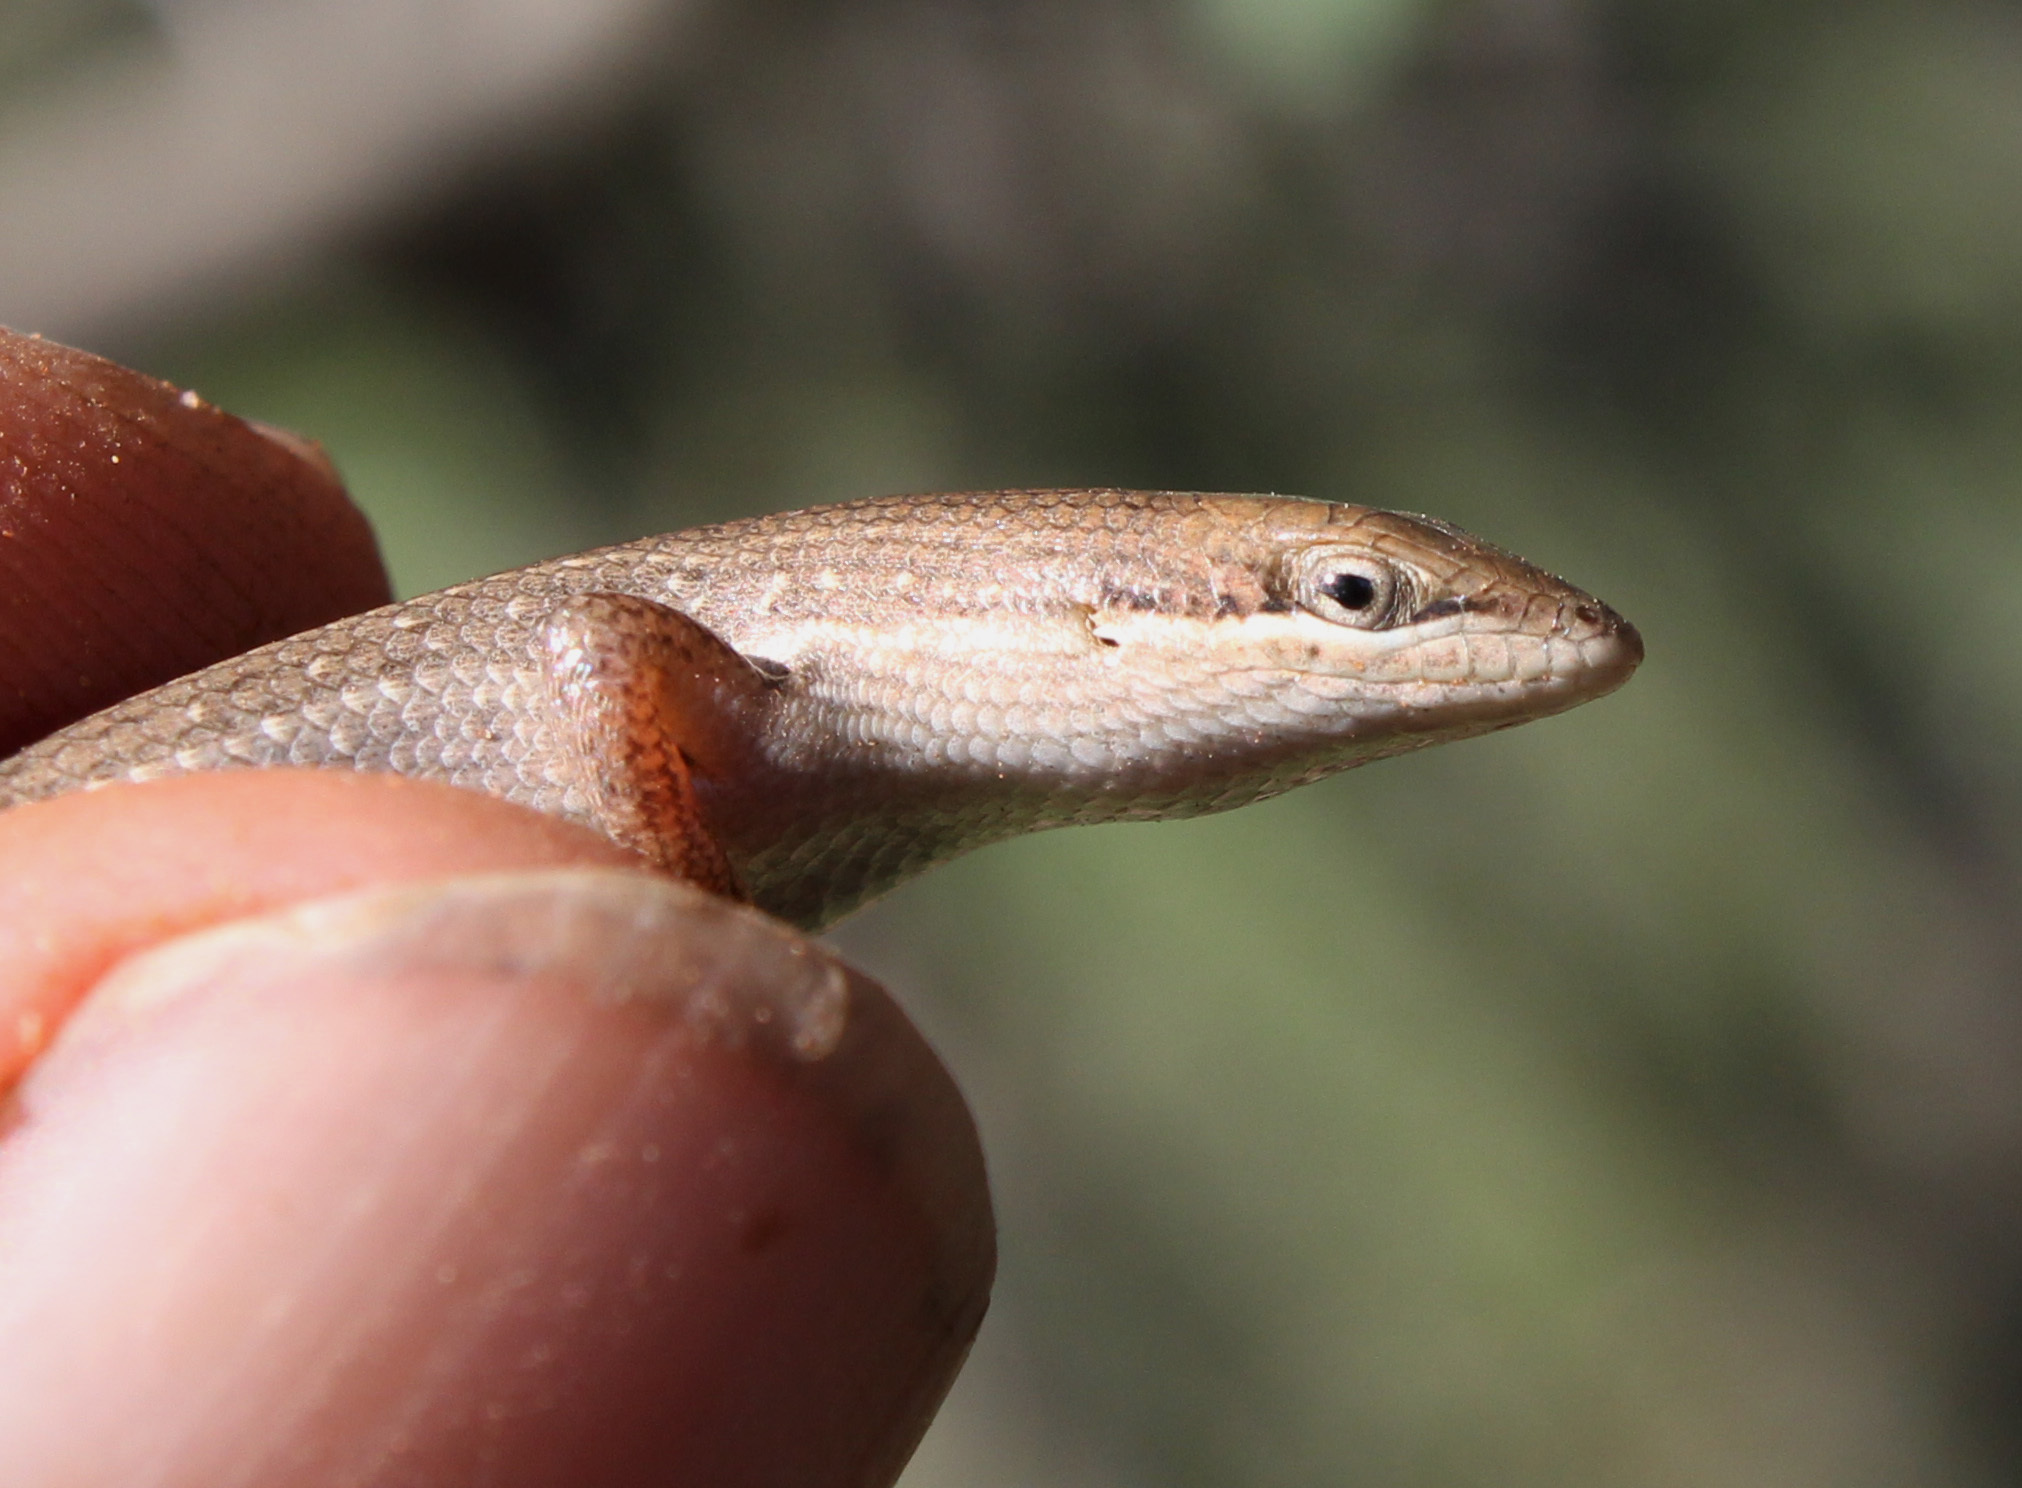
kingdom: Animalia
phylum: Chordata
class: Squamata
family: Scincidae
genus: Trachylepis
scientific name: Trachylepis punctulata
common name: Speckled sand skink
